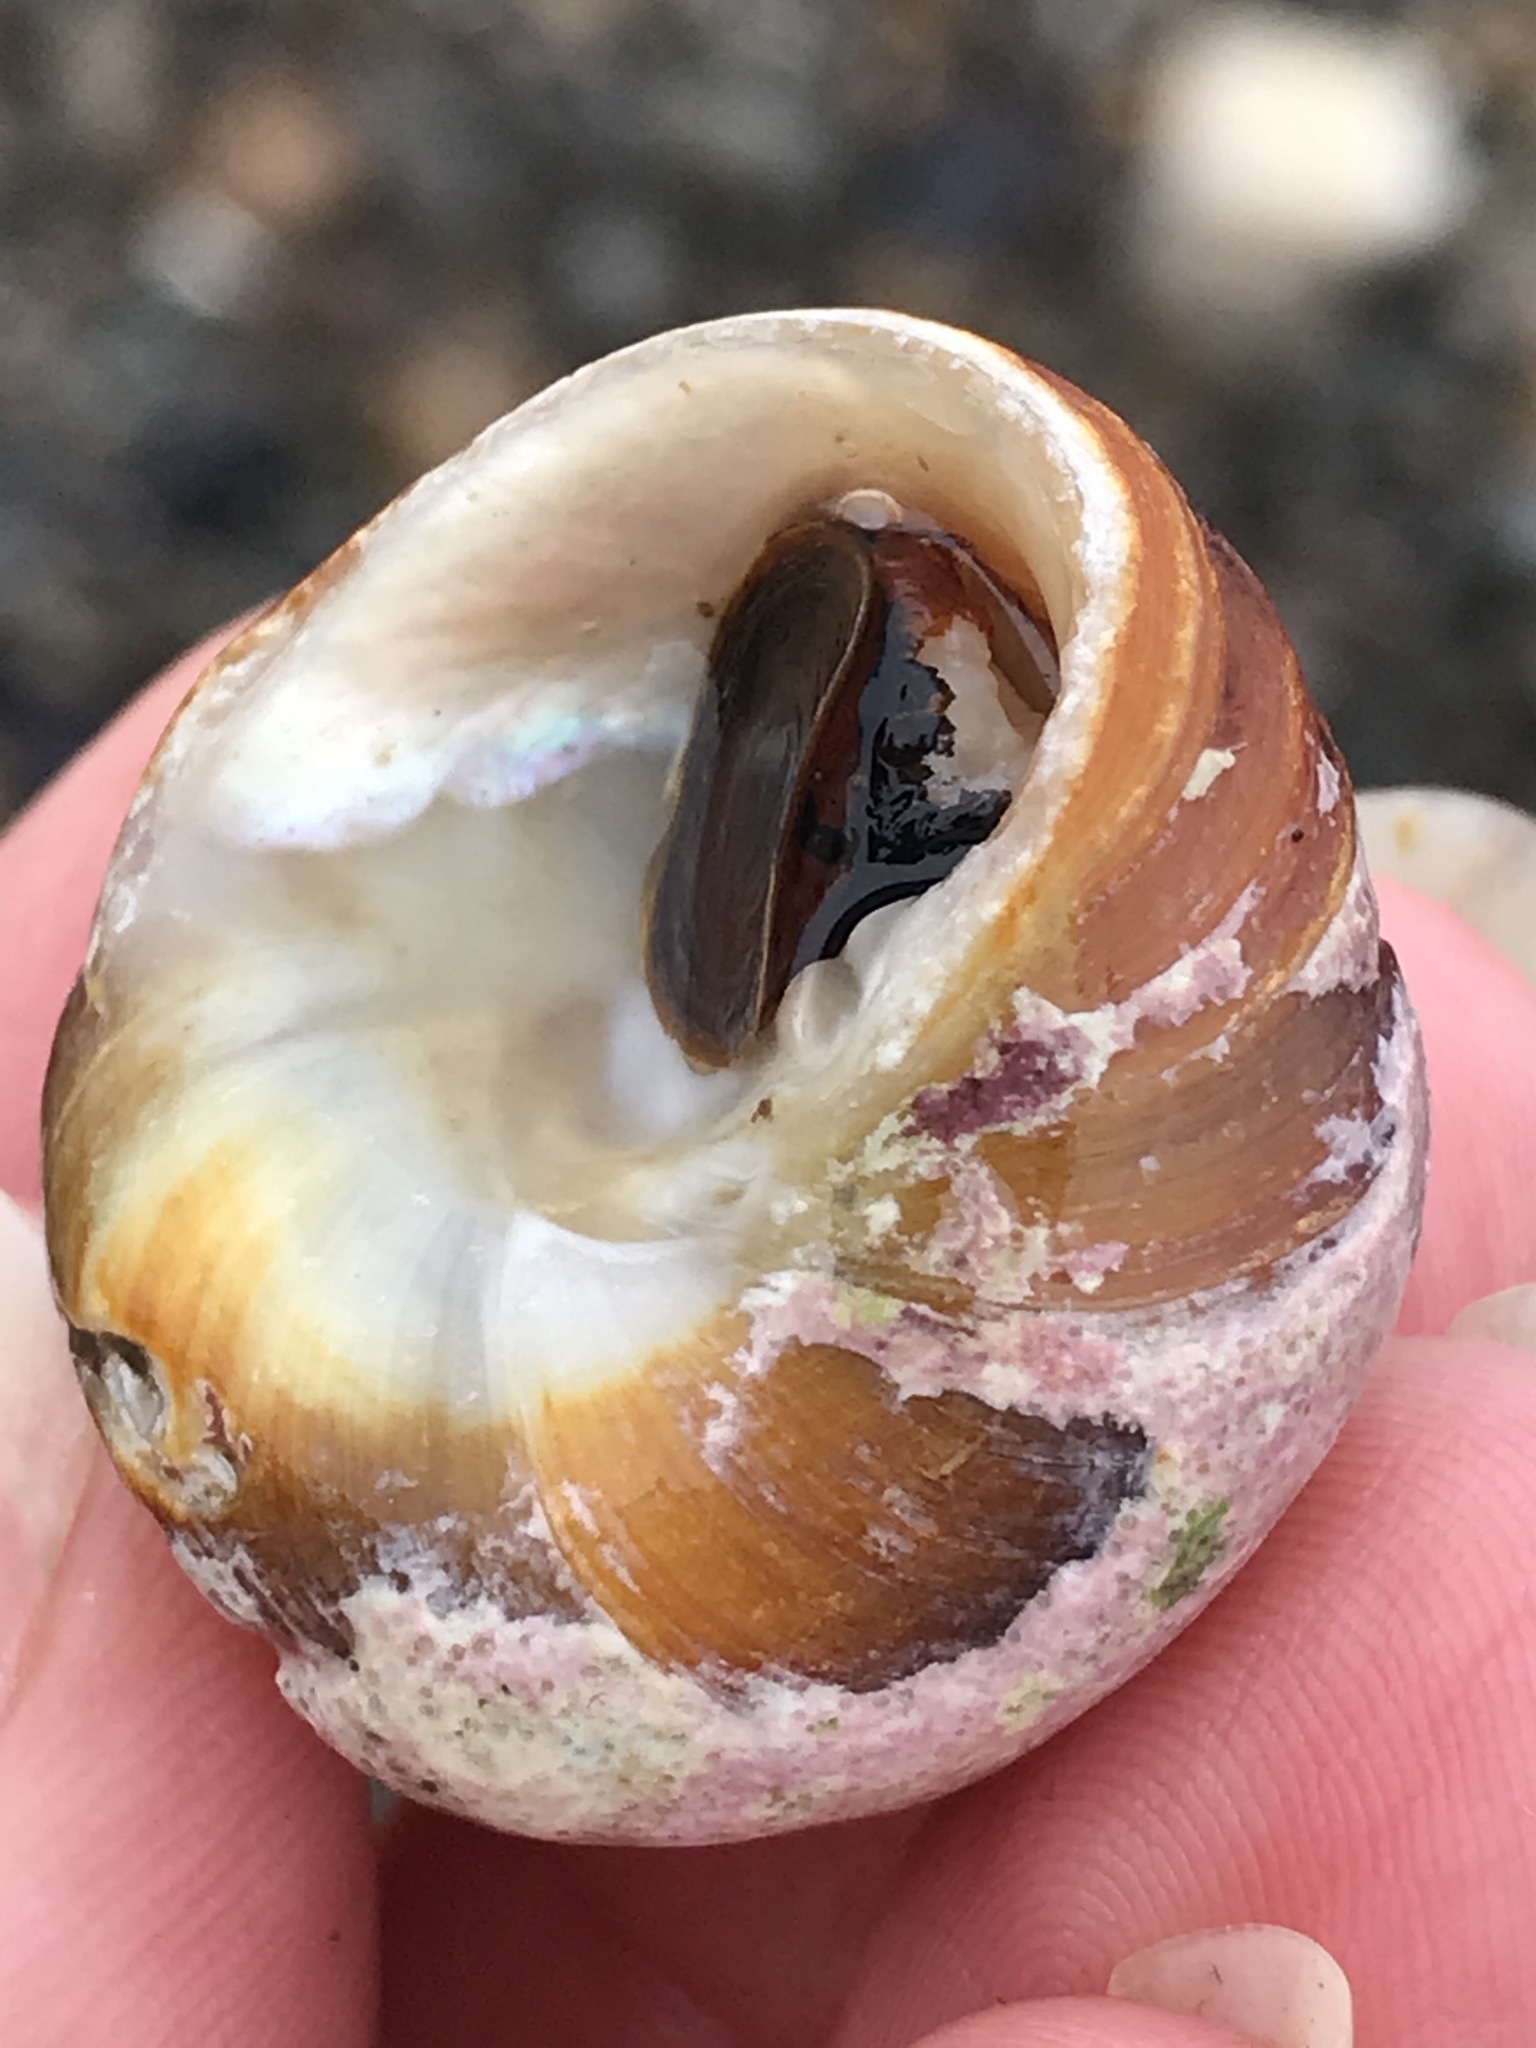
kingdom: Animalia
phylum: Mollusca
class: Gastropoda
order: Trochida
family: Tegulidae
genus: Tegula
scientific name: Tegula brunnea
